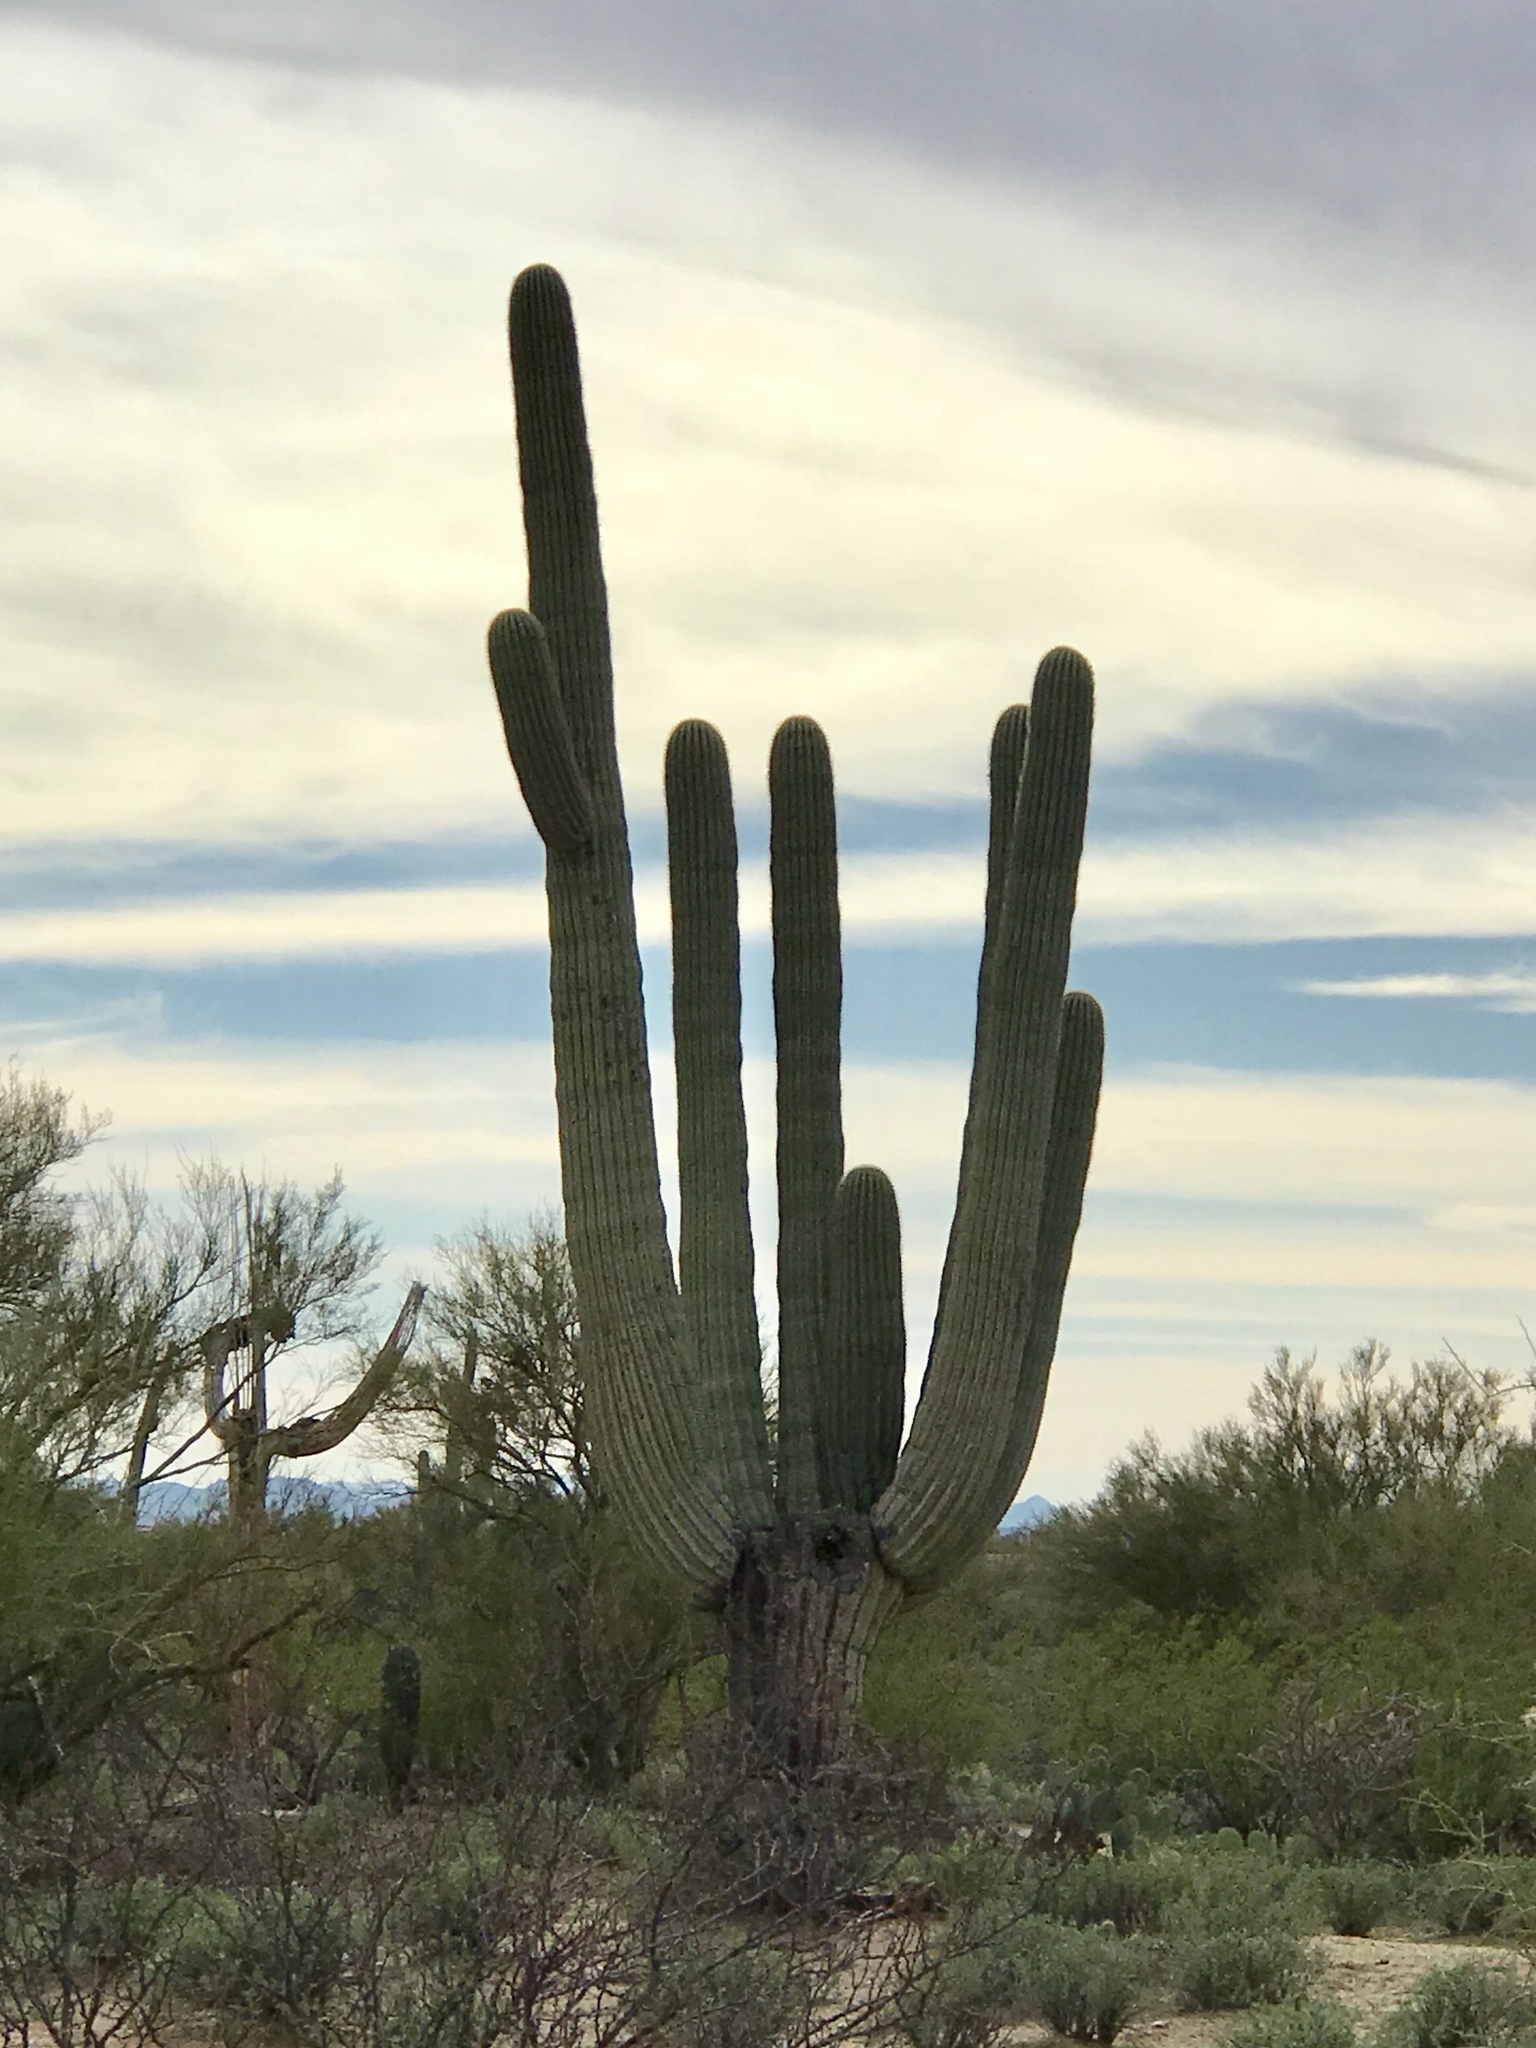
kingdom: Plantae
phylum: Tracheophyta
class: Magnoliopsida
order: Caryophyllales
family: Cactaceae
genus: Carnegiea
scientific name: Carnegiea gigantea
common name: Saguaro
